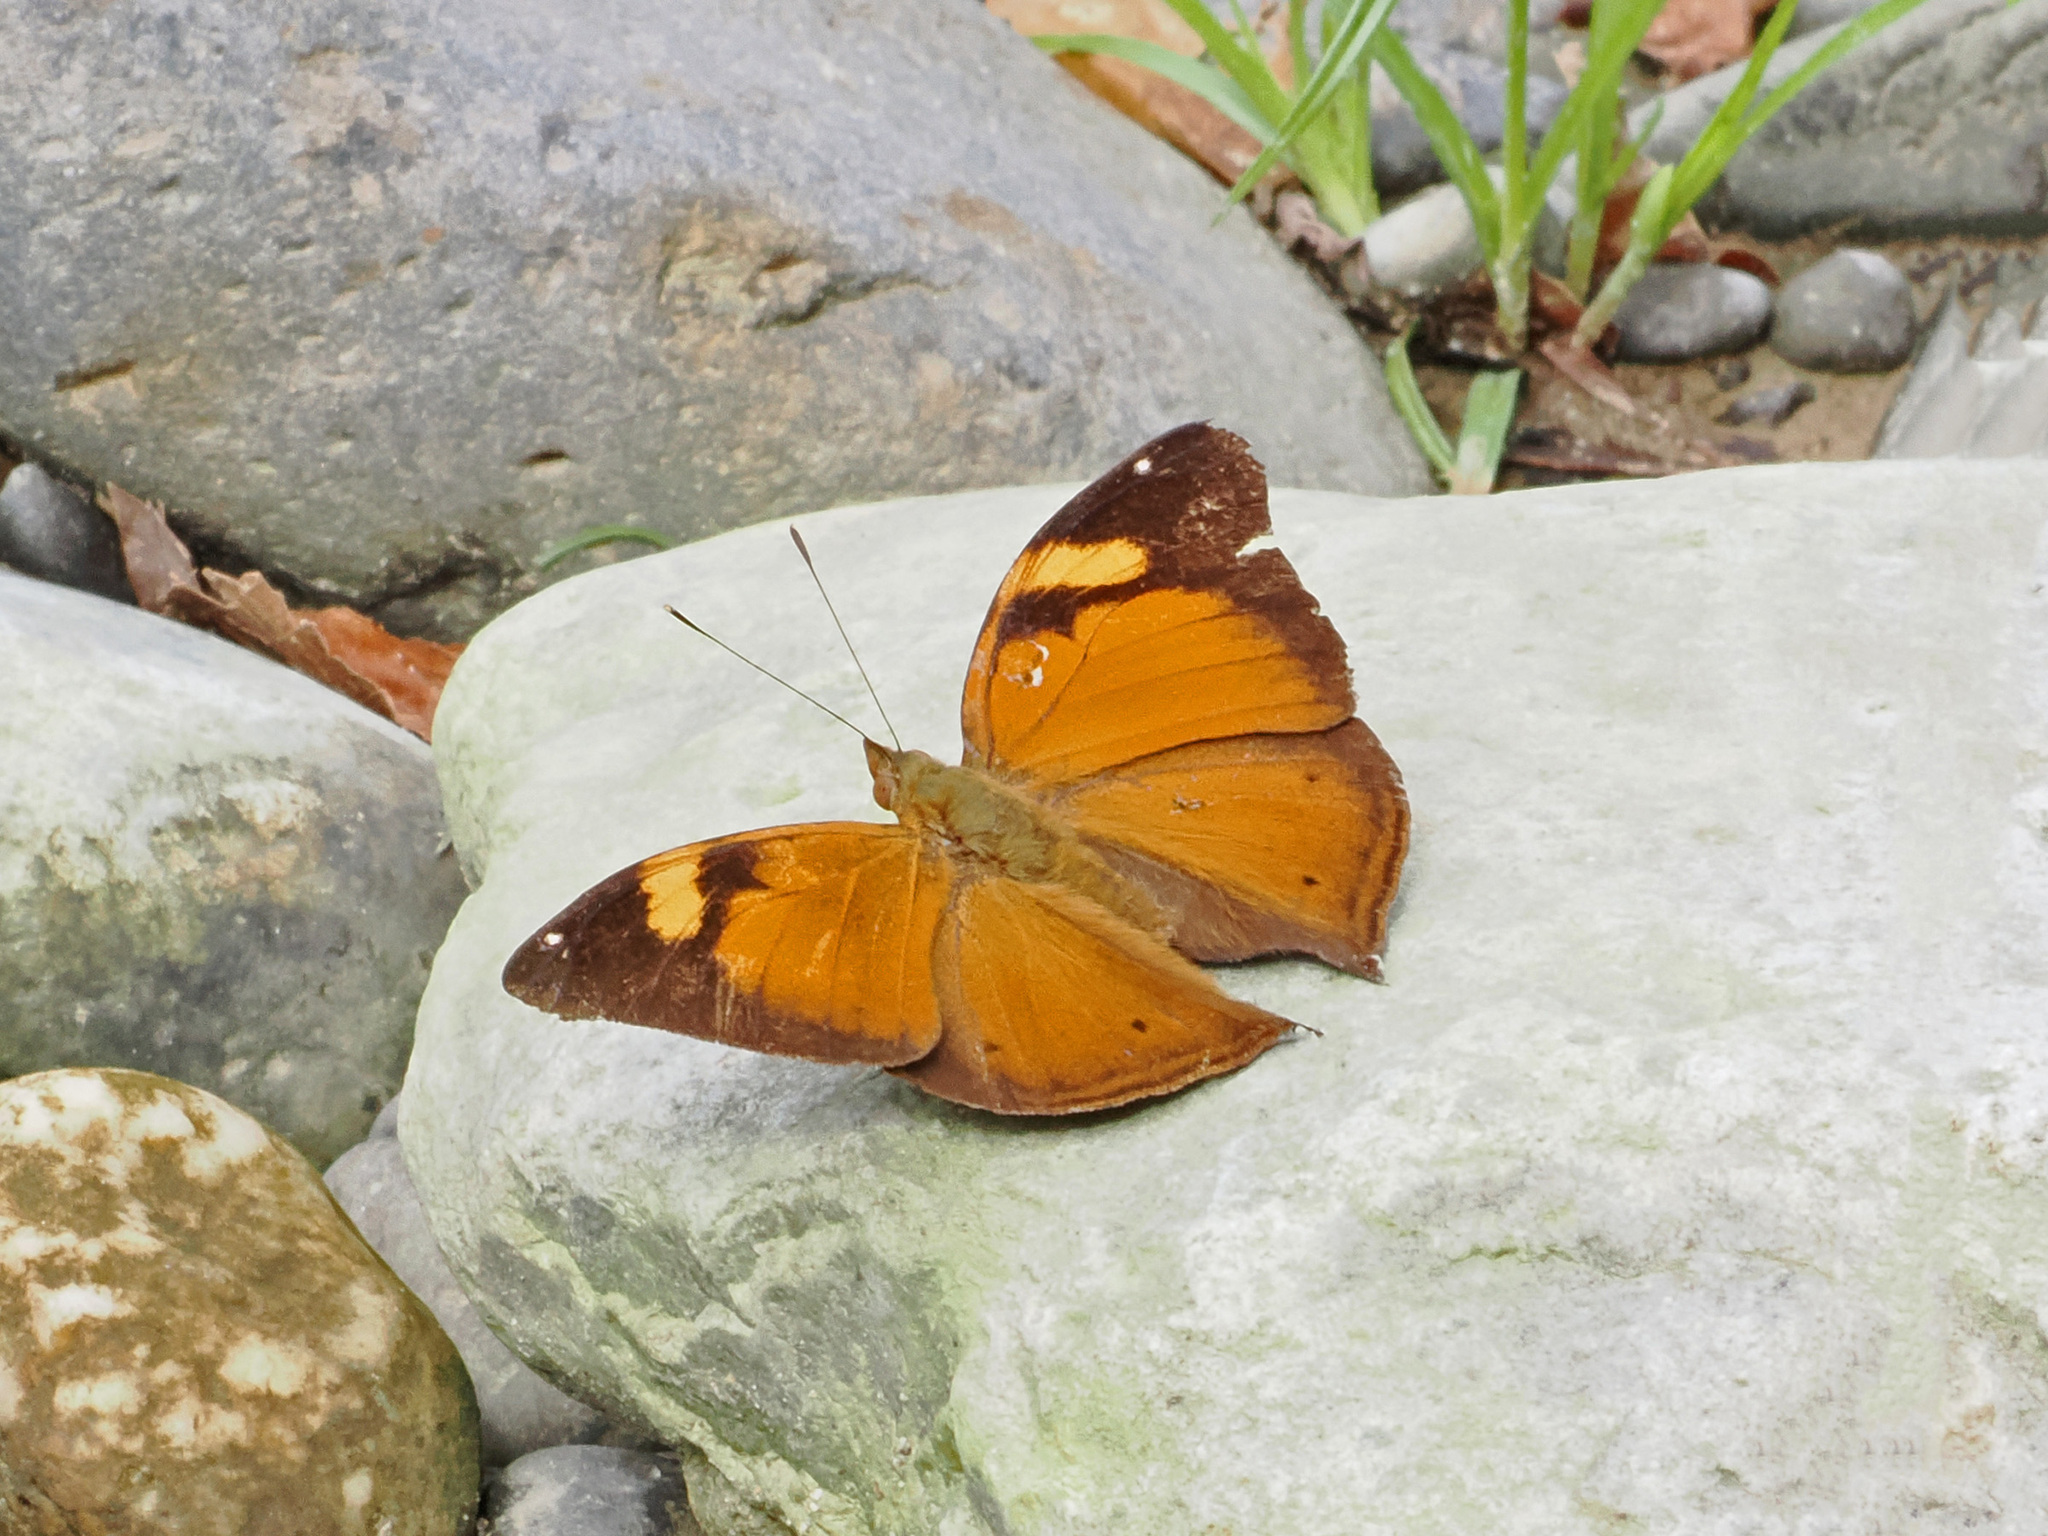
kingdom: Animalia
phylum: Arthropoda
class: Insecta
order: Lepidoptera
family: Nymphalidae
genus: Doleschallia
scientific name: Doleschallia bisaltide
